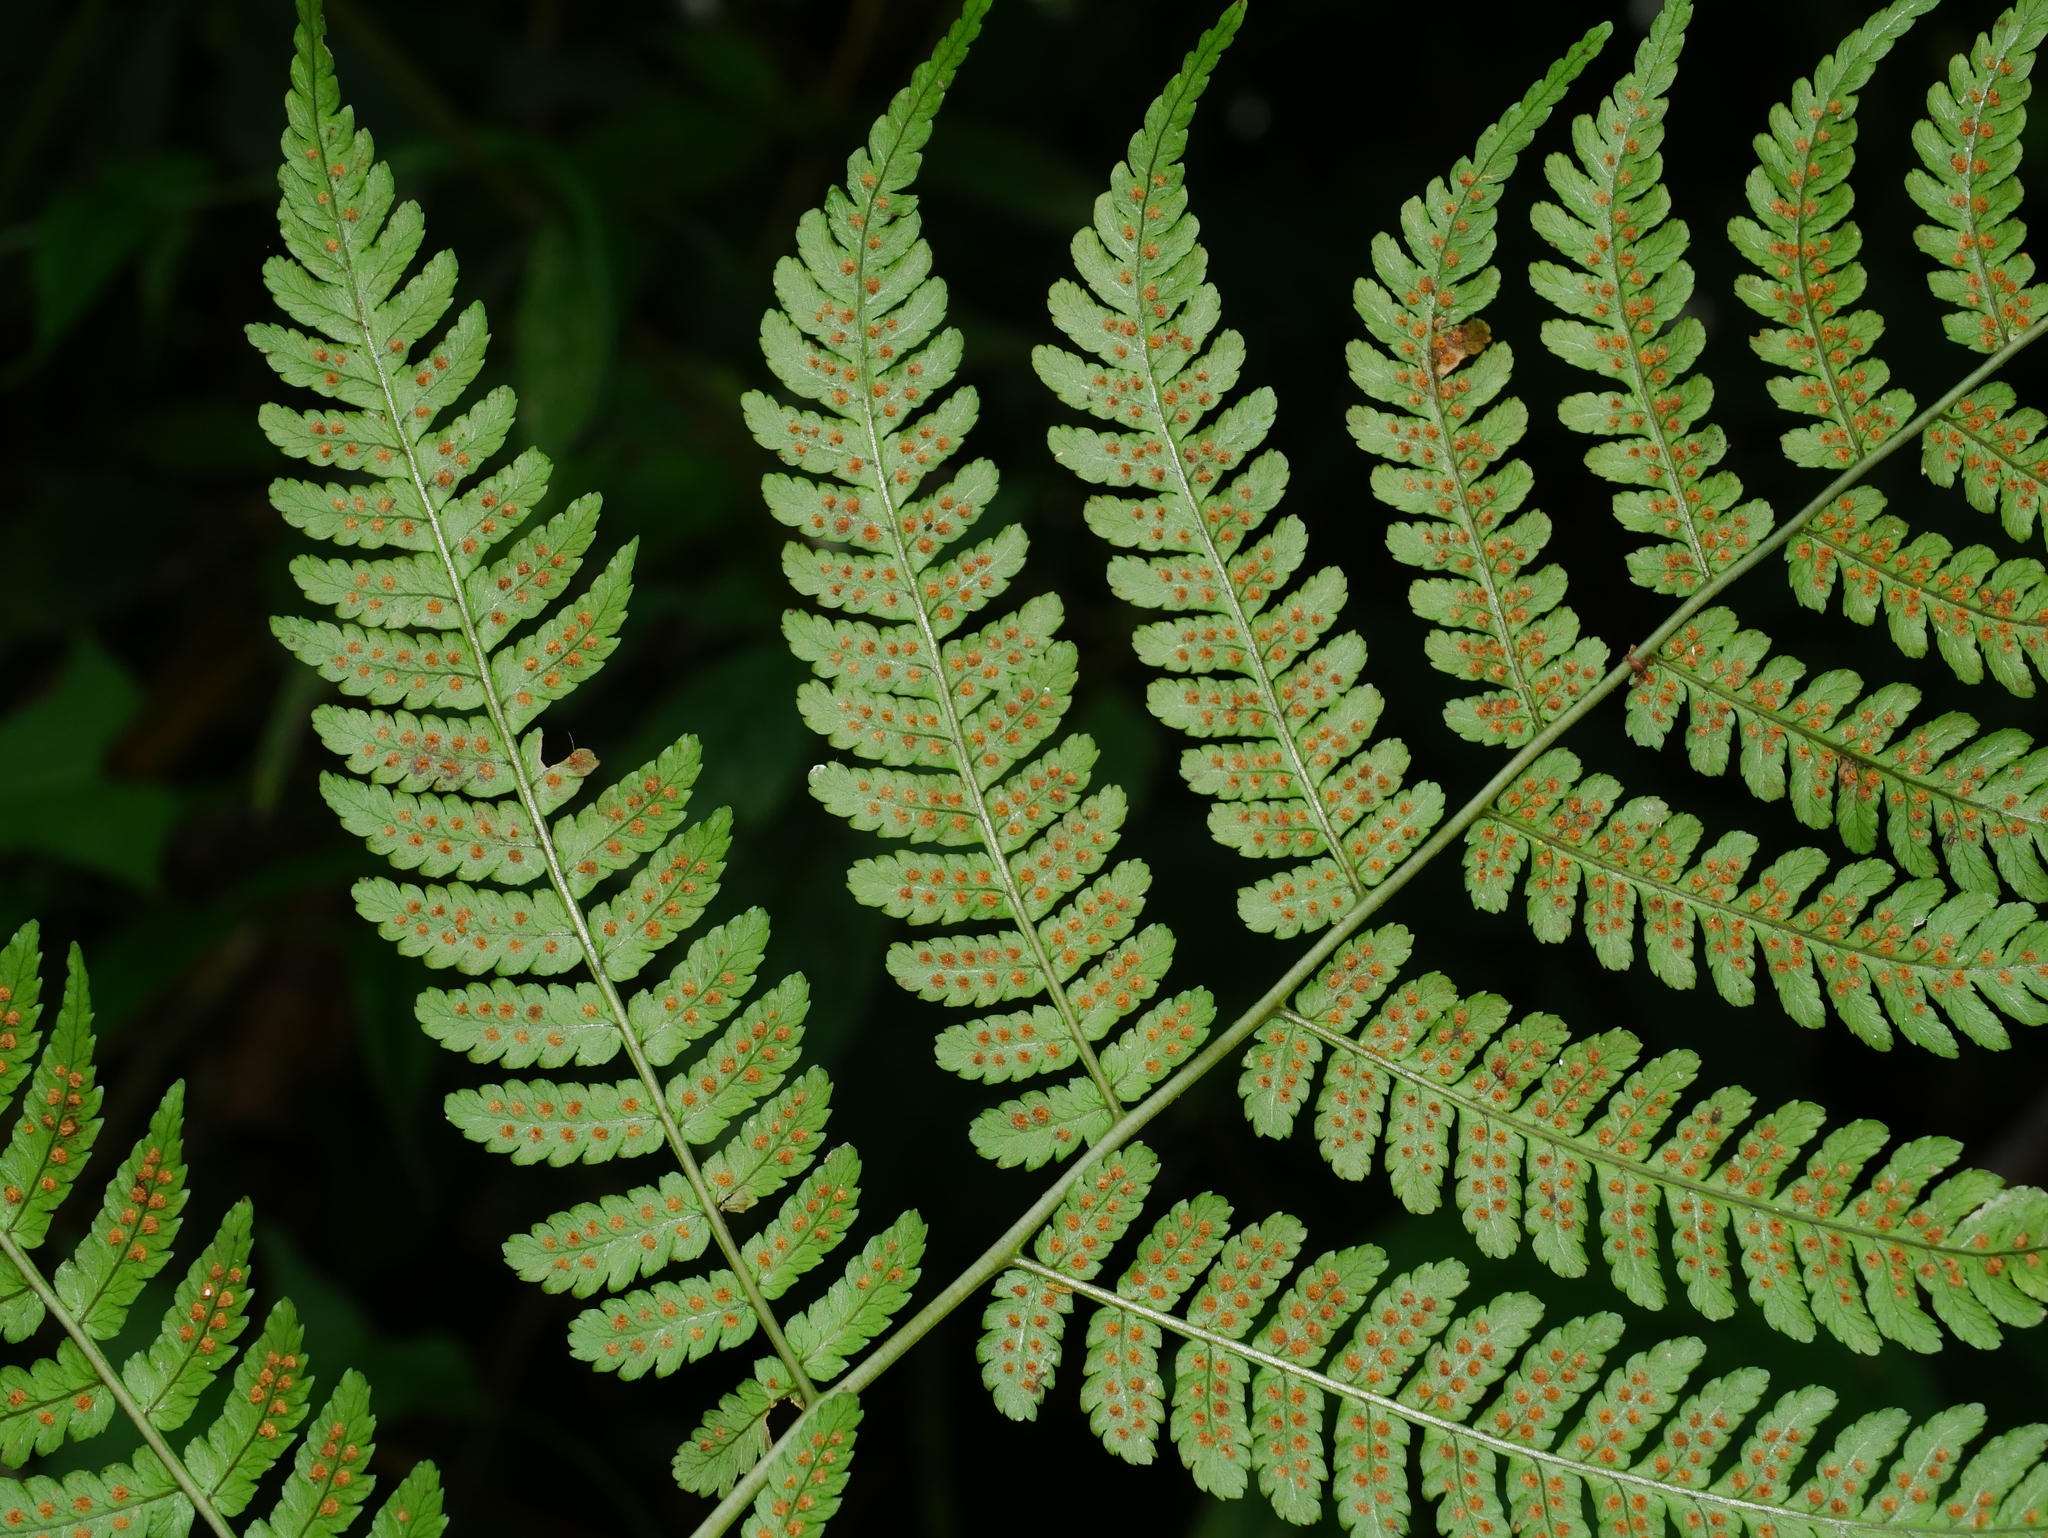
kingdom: Plantae
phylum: Tracheophyta
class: Polypodiopsida
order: Polypodiales
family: Dryopteridaceae
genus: Dryopteris
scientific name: Dryopteris marginata
